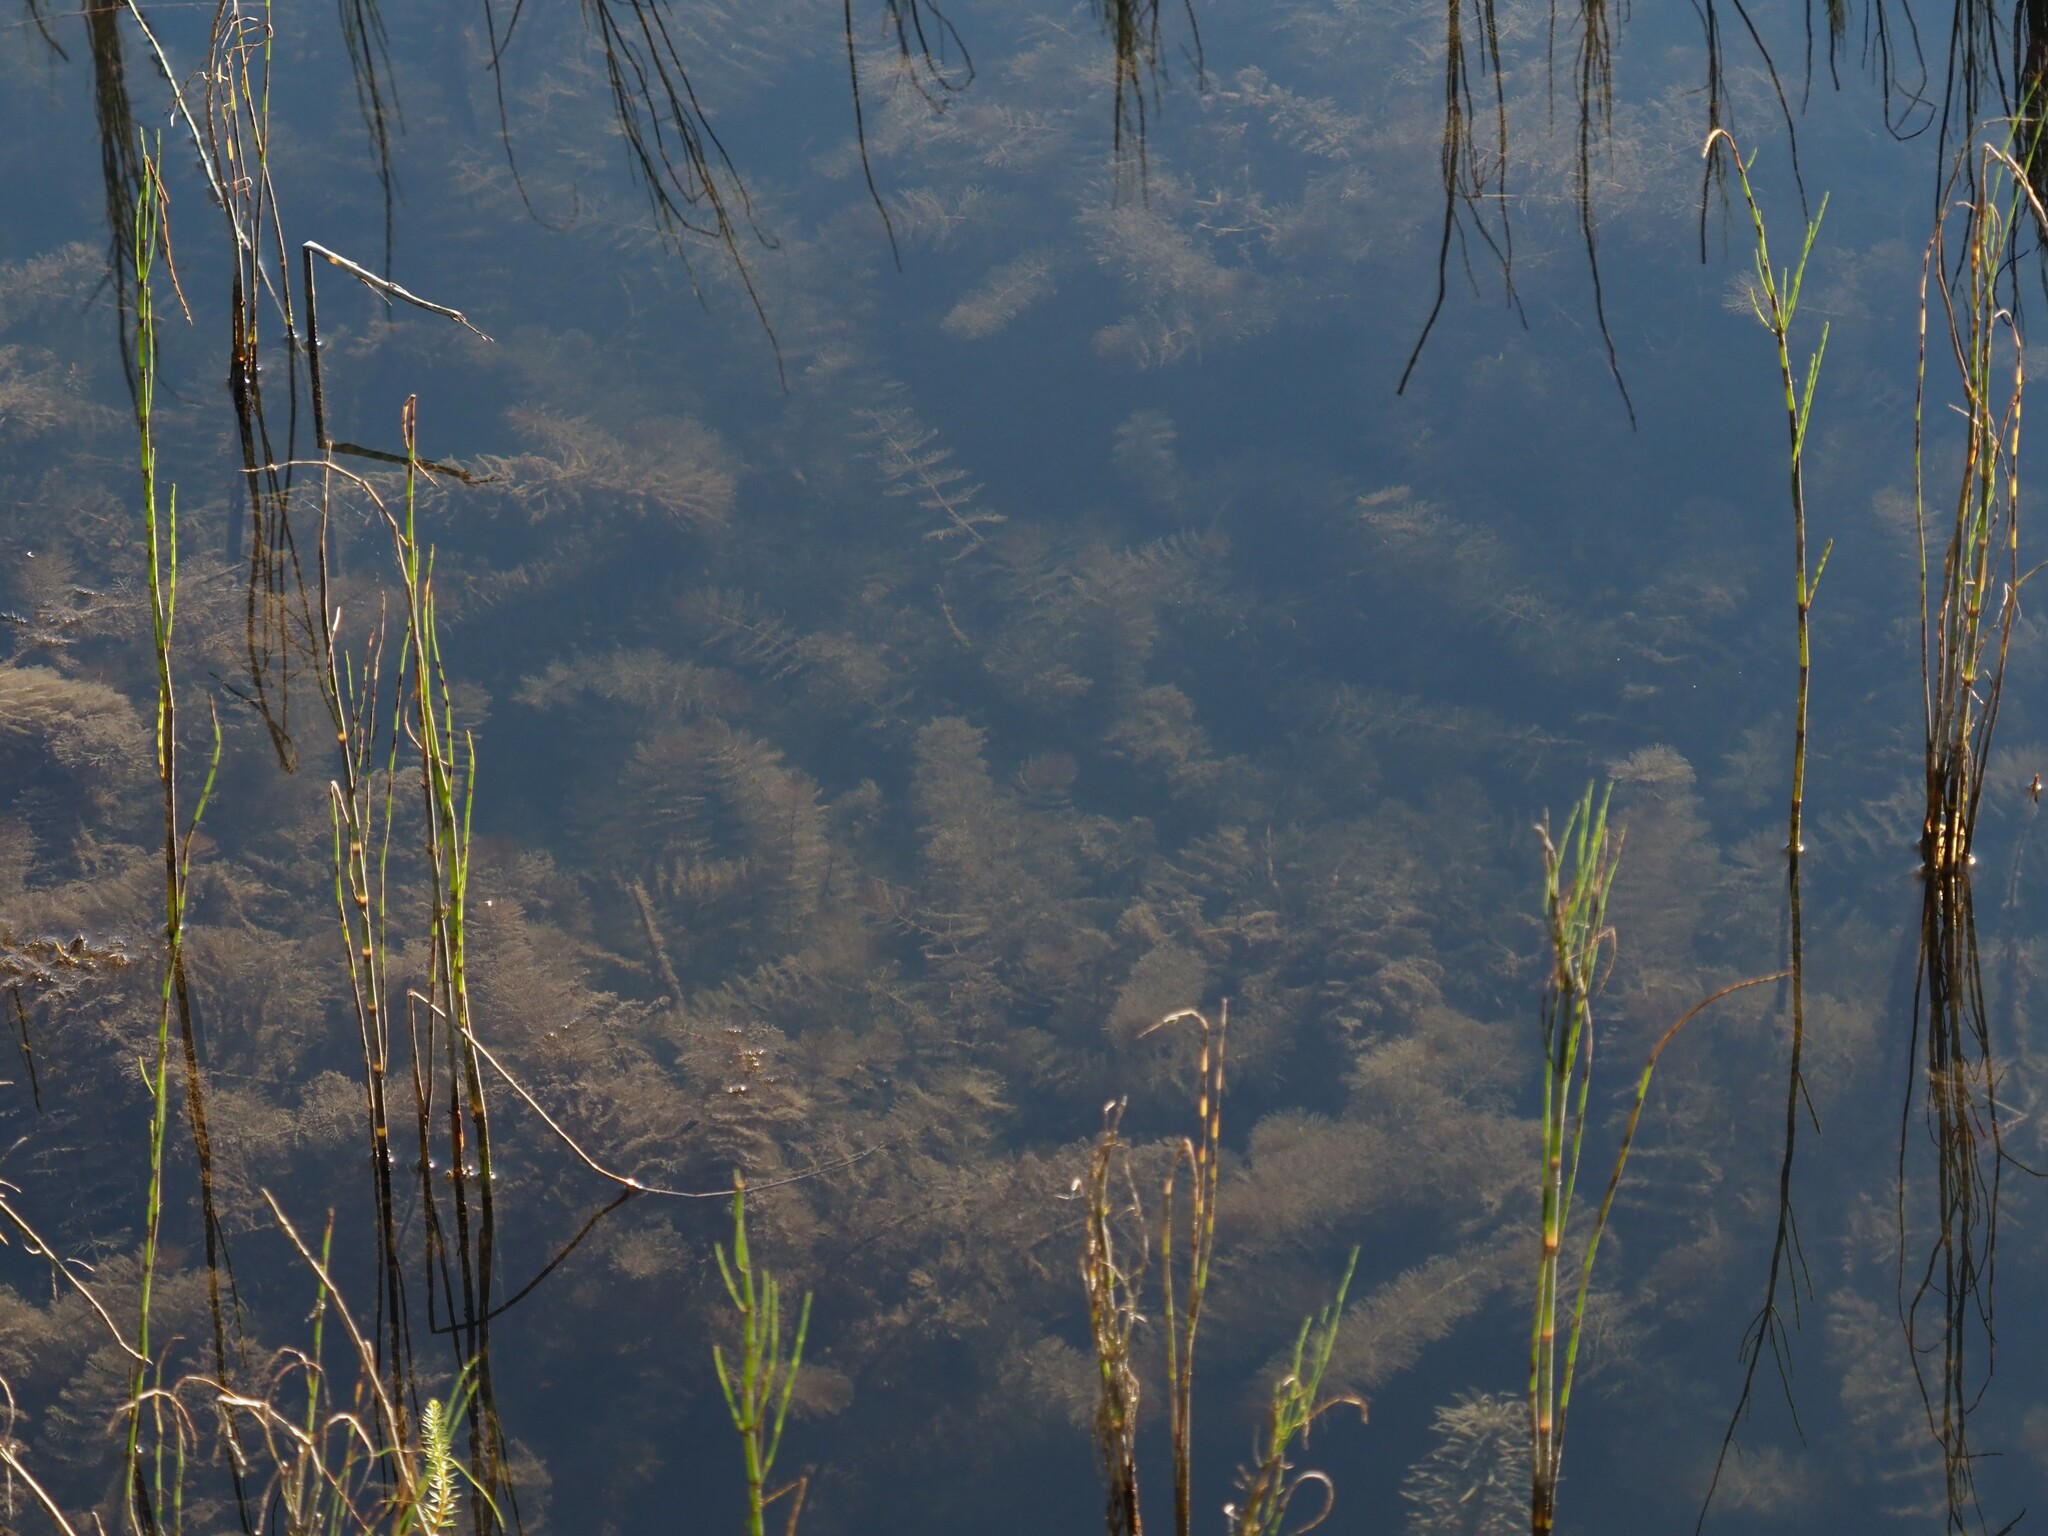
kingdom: Plantae
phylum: Tracheophyta
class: Magnoliopsida
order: Saxifragales
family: Haloragaceae
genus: Myriophyllum
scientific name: Myriophyllum sibiricum
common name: Siberian water-milfoil
